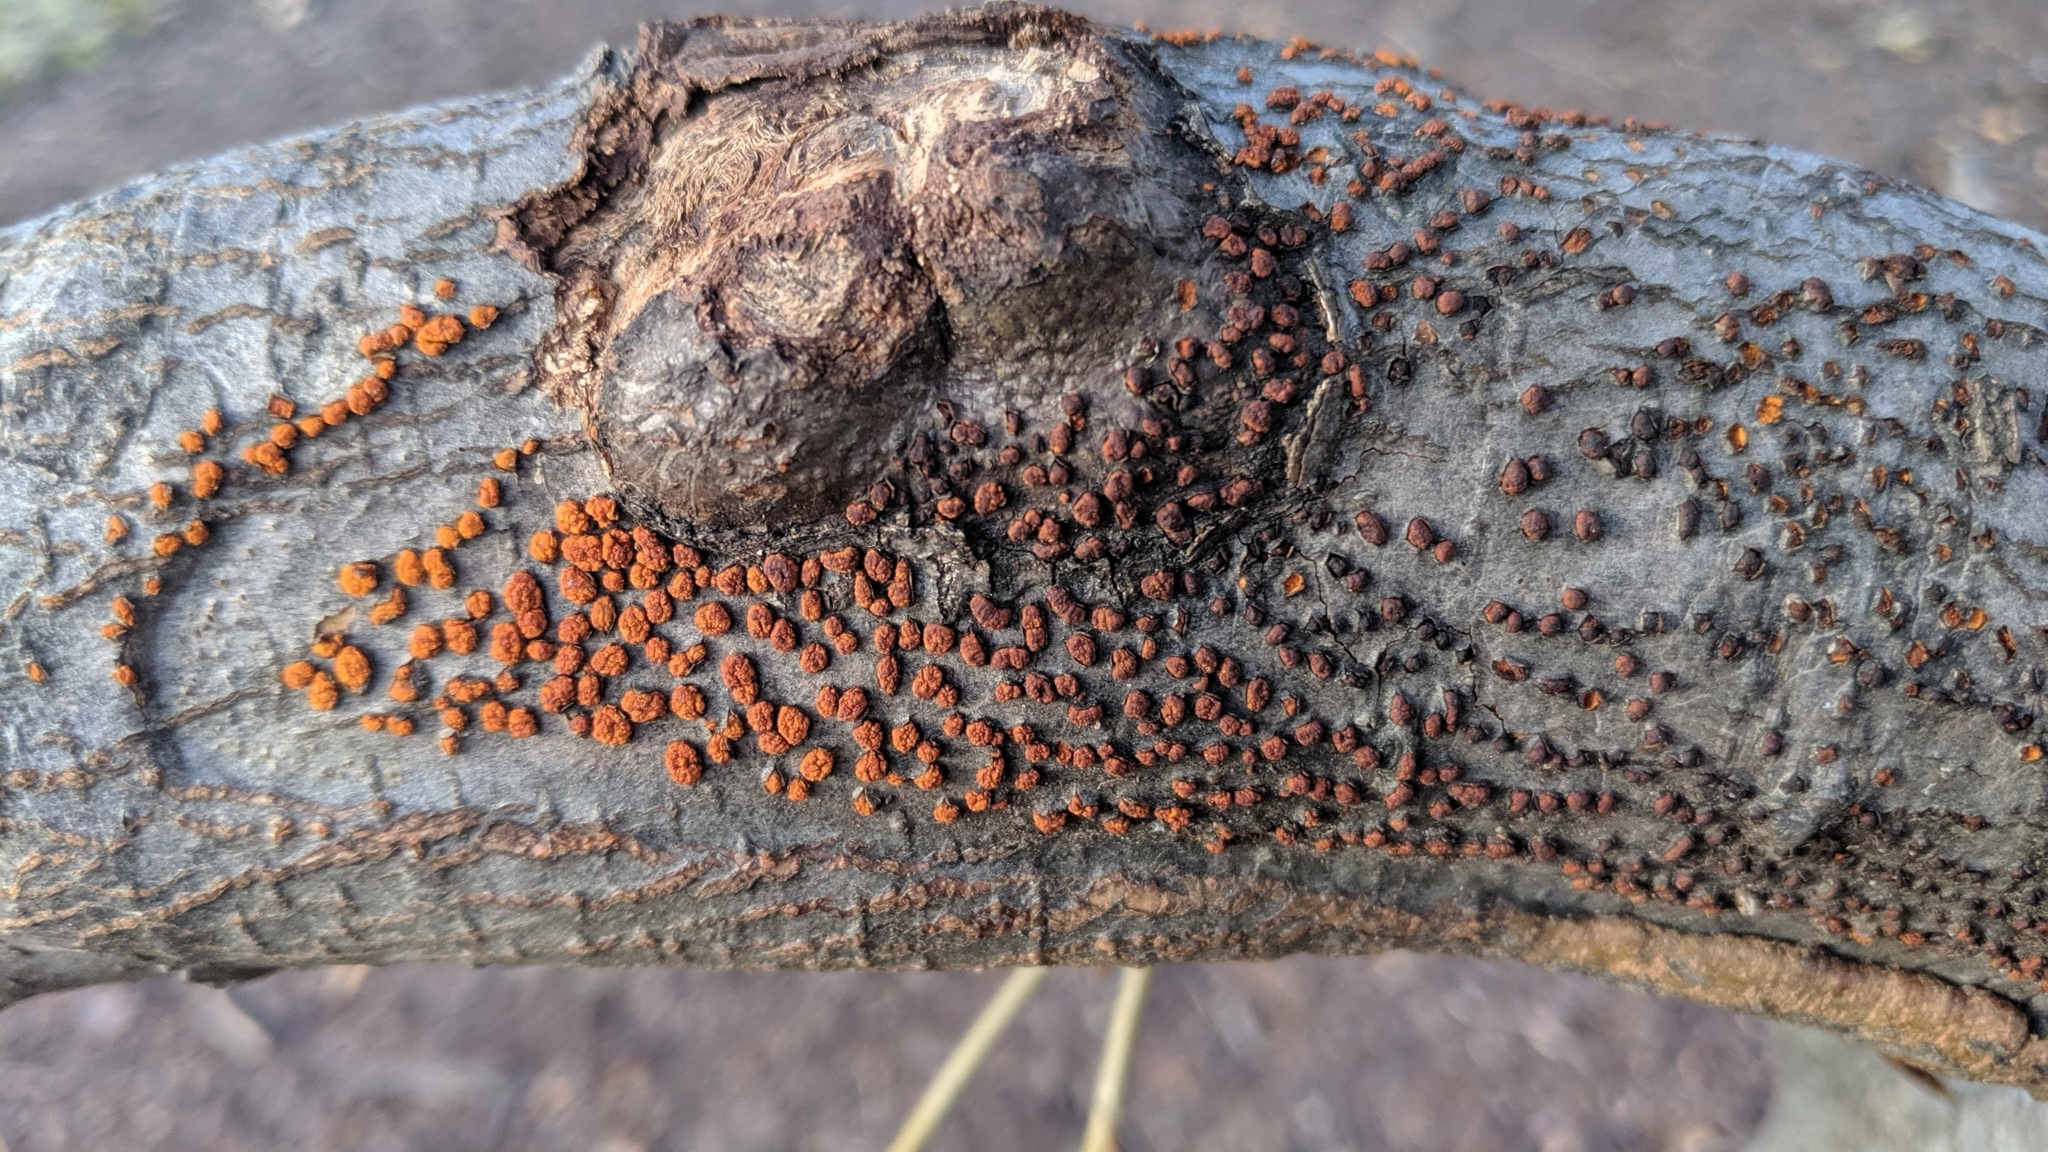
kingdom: Fungi
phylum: Ascomycota
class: Sordariomycetes
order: Diaporthales
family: Cryphonectriaceae
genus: Amphilogia
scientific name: Amphilogia gyrosa
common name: Orange hobnail canker
